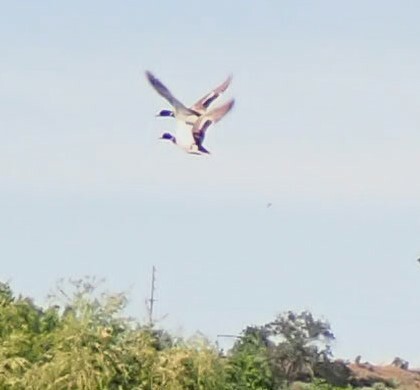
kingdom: Animalia
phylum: Chordata
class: Aves
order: Anseriformes
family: Anatidae
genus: Anas
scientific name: Anas platyrhynchos
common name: Mallard
